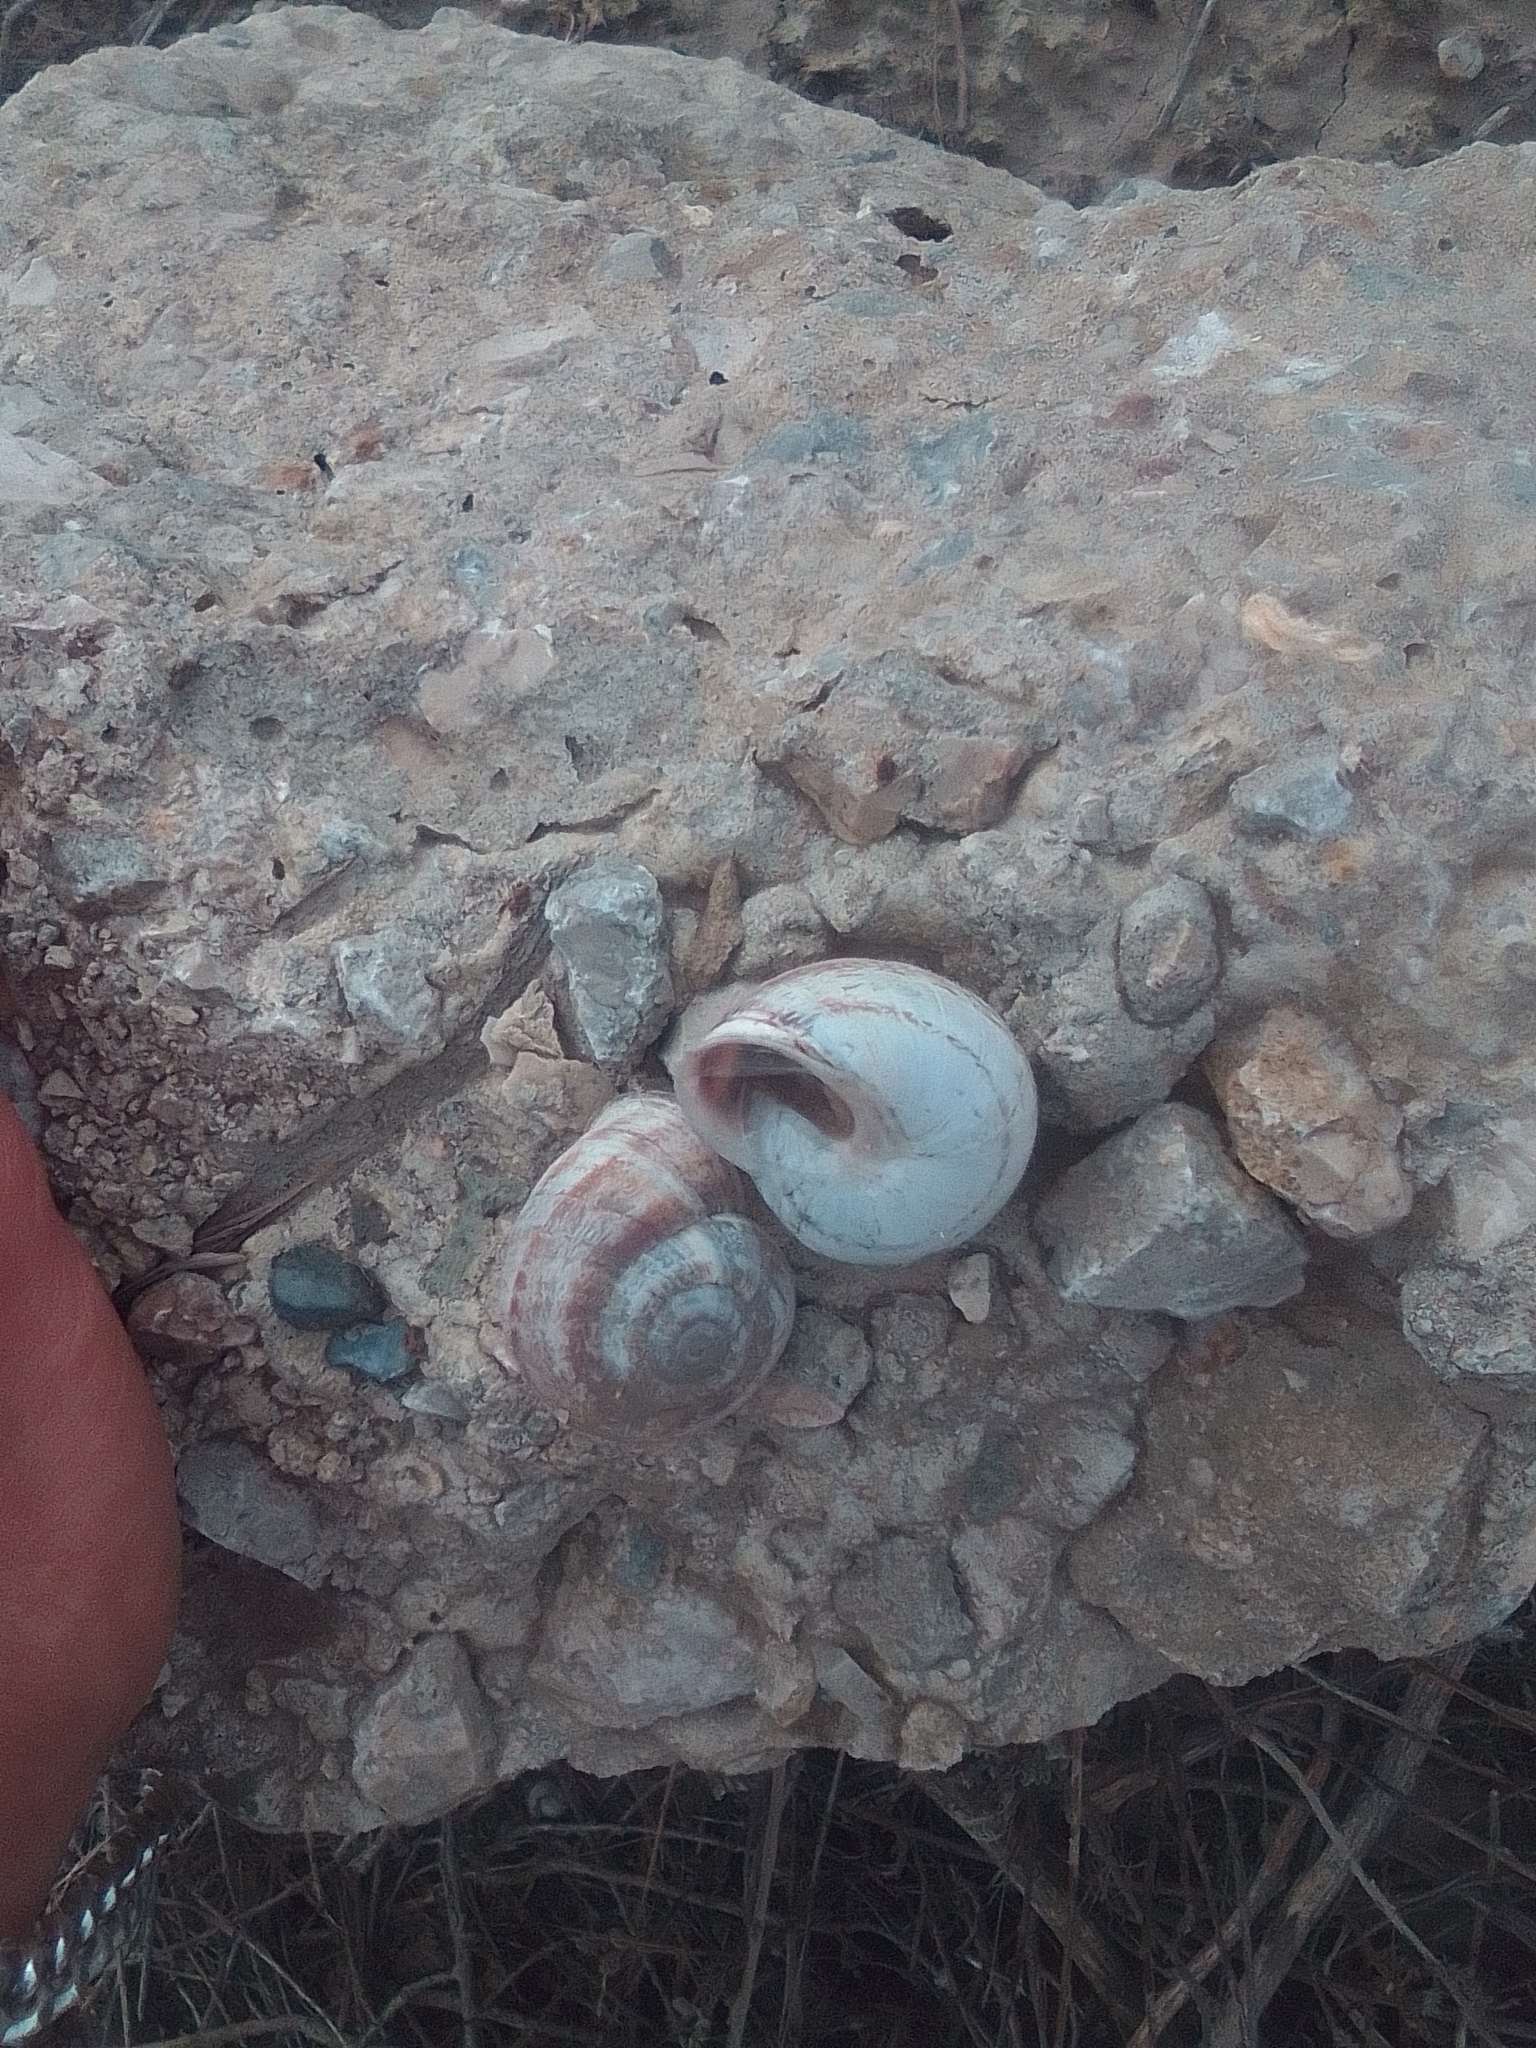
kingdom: Animalia
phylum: Mollusca
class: Gastropoda
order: Stylommatophora
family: Helicidae
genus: Eobania
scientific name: Eobania vermiculata
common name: Chocolateband snail
